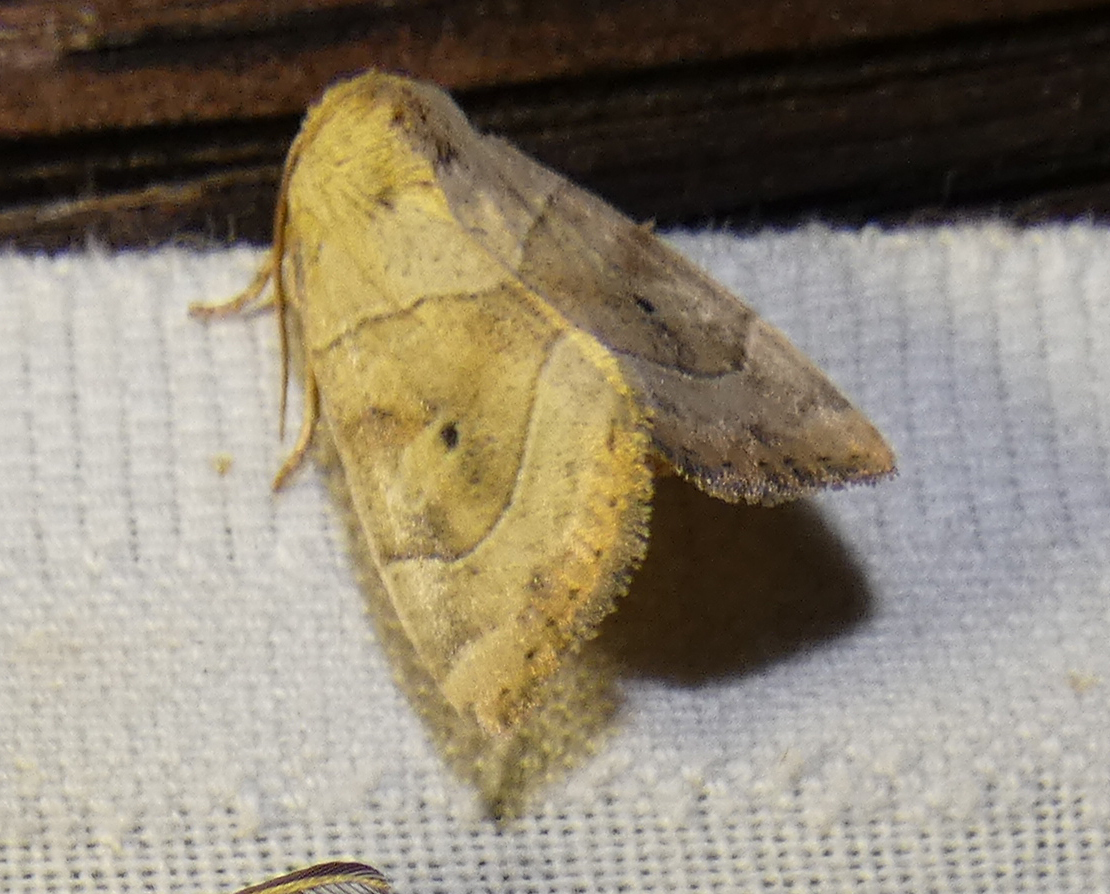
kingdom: Animalia
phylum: Arthropoda
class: Insecta
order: Lepidoptera
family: Noctuidae
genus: Cosmia
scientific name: Cosmia trapezina
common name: Dun-bar
